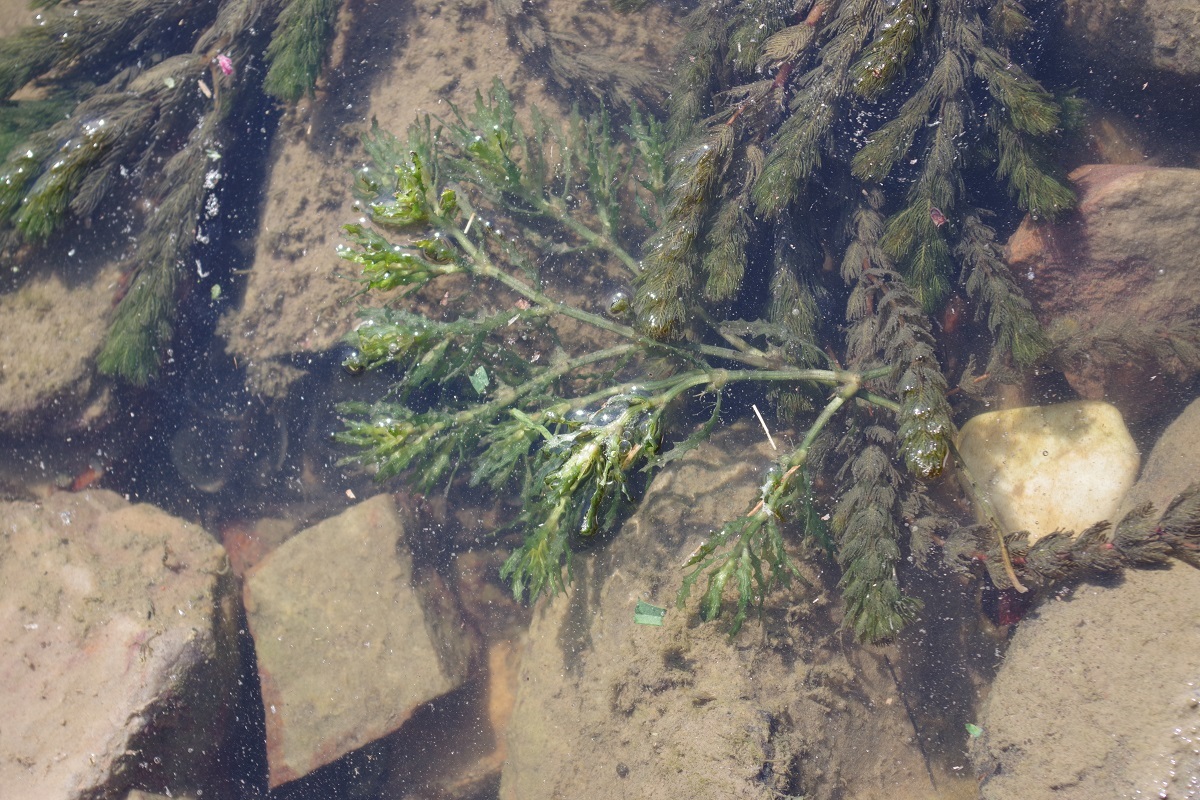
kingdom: Plantae
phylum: Tracheophyta
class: Liliopsida
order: Alismatales
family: Hydrocharitaceae
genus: Najas
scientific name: Najas marina
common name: Holly-leaved naiad
